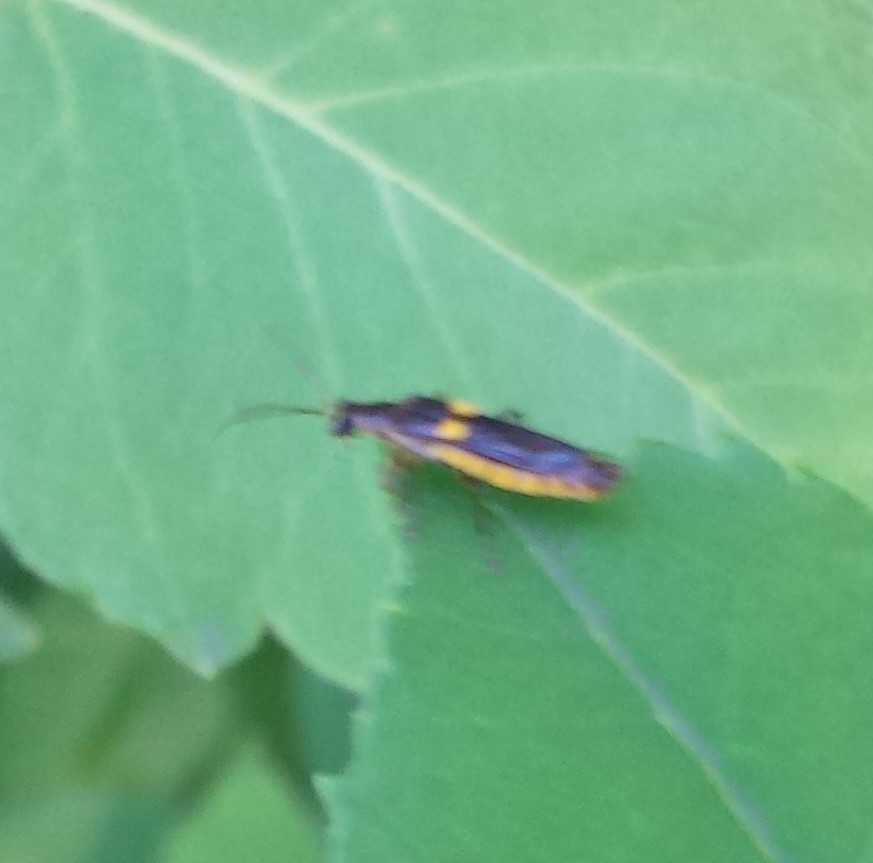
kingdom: Animalia
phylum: Arthropoda
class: Insecta
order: Coleoptera
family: Cantharidae
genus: Trypherus
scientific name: Trypherus
